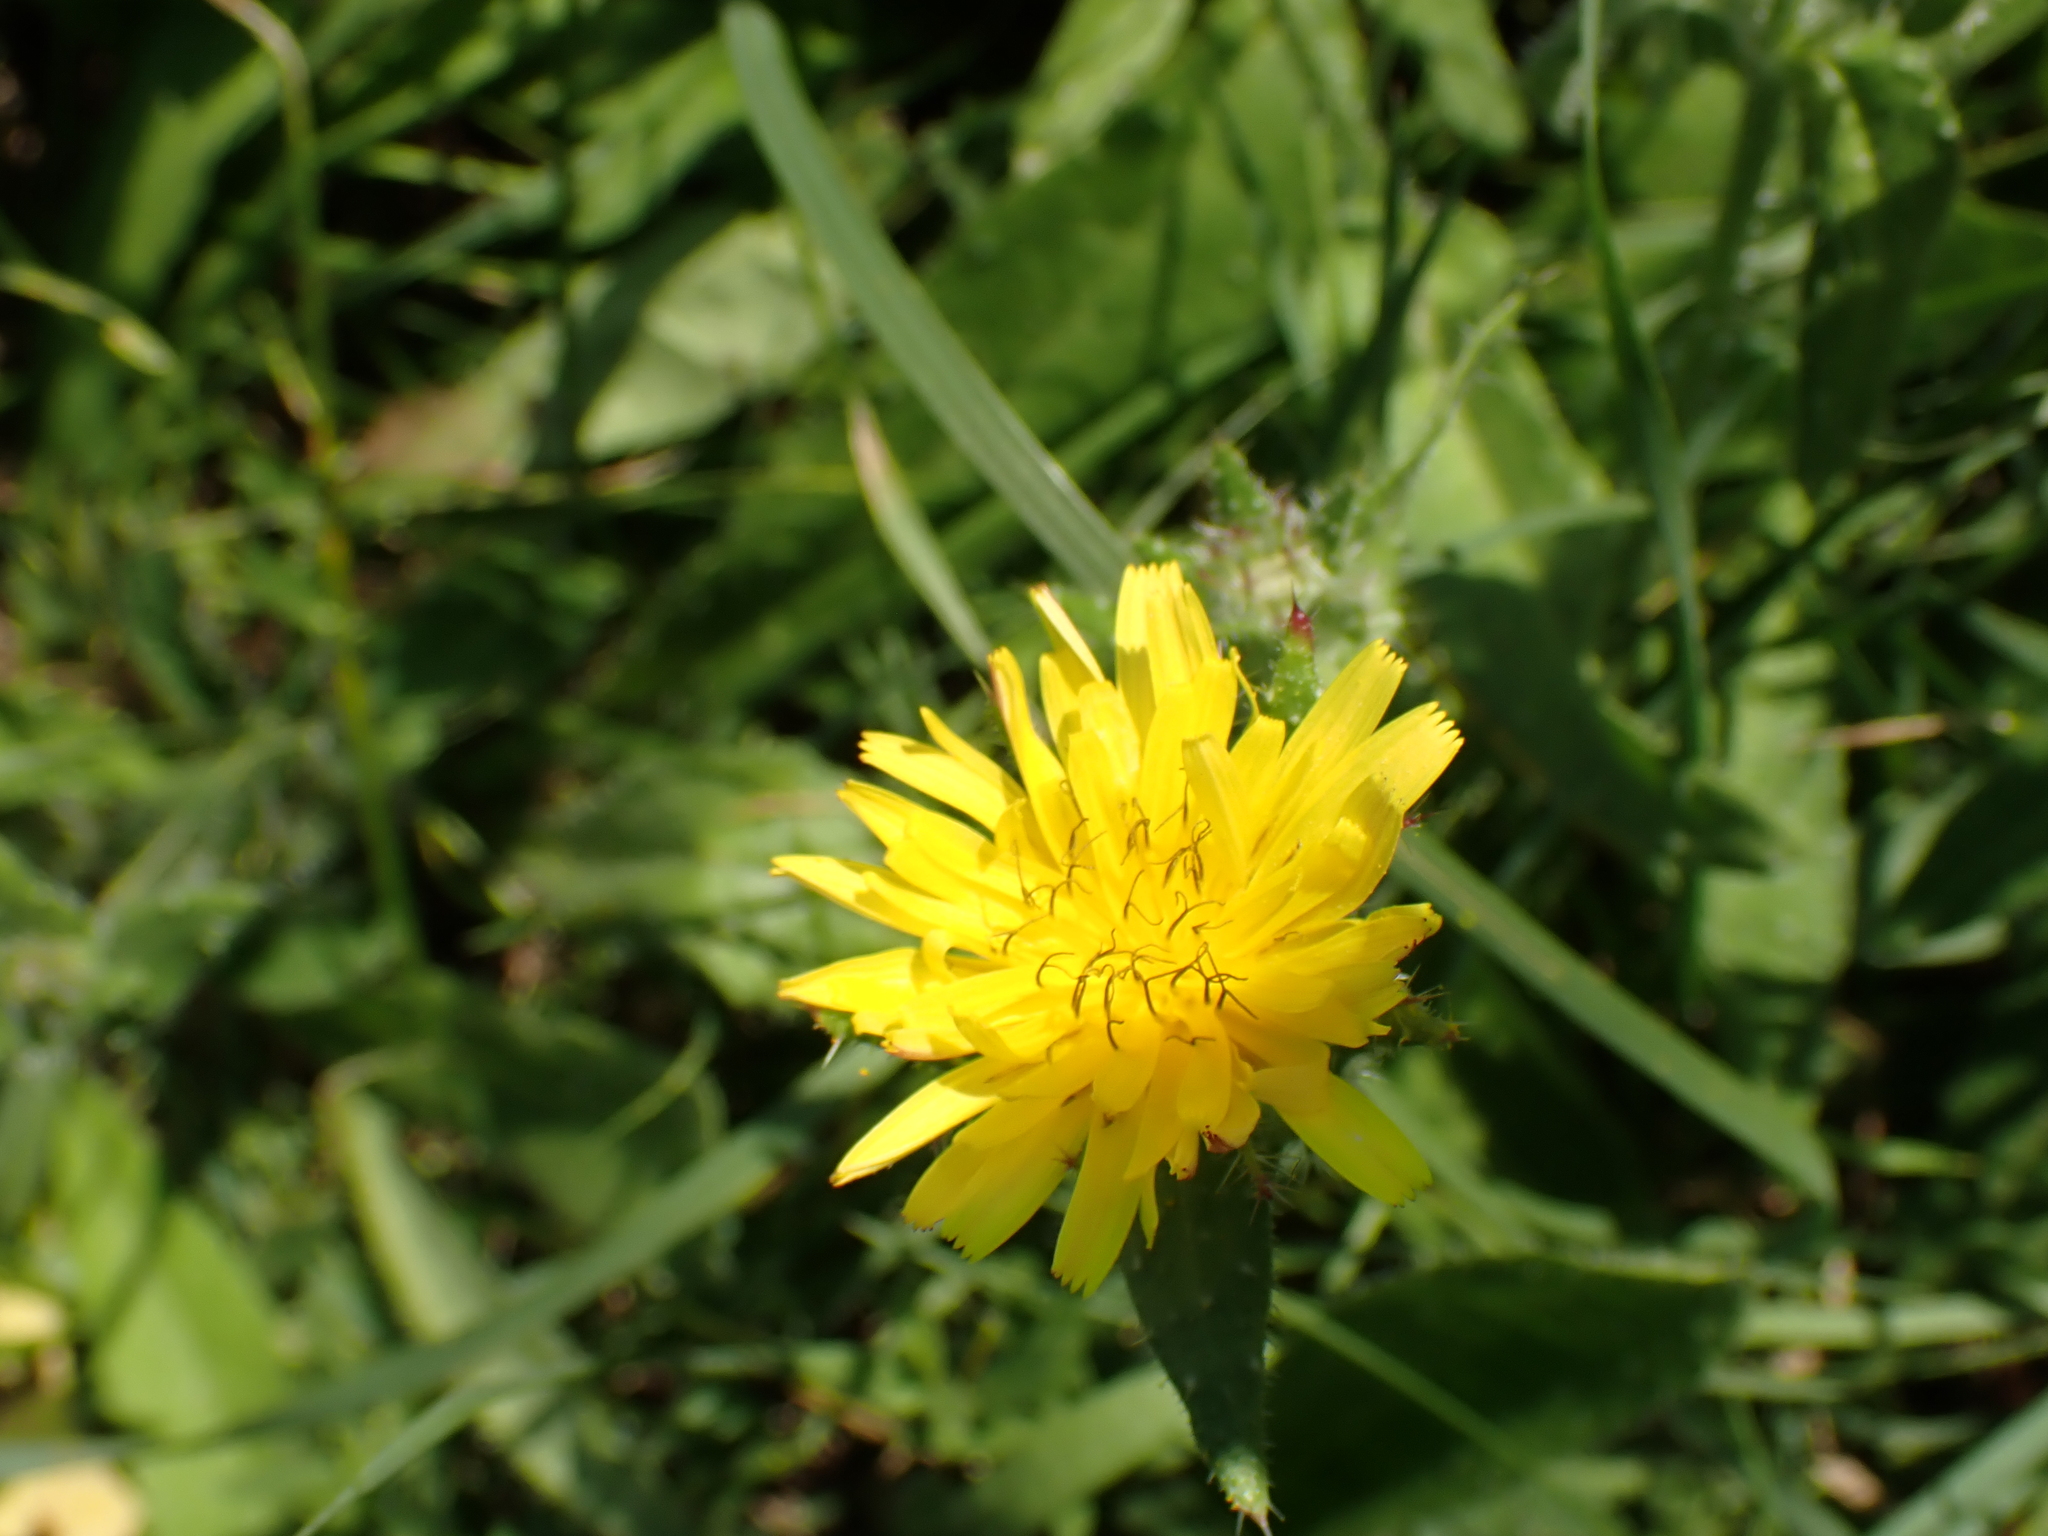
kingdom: Plantae
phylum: Tracheophyta
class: Magnoliopsida
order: Asterales
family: Asteraceae
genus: Helminthotheca
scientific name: Helminthotheca echioides
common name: Ox-tongue
